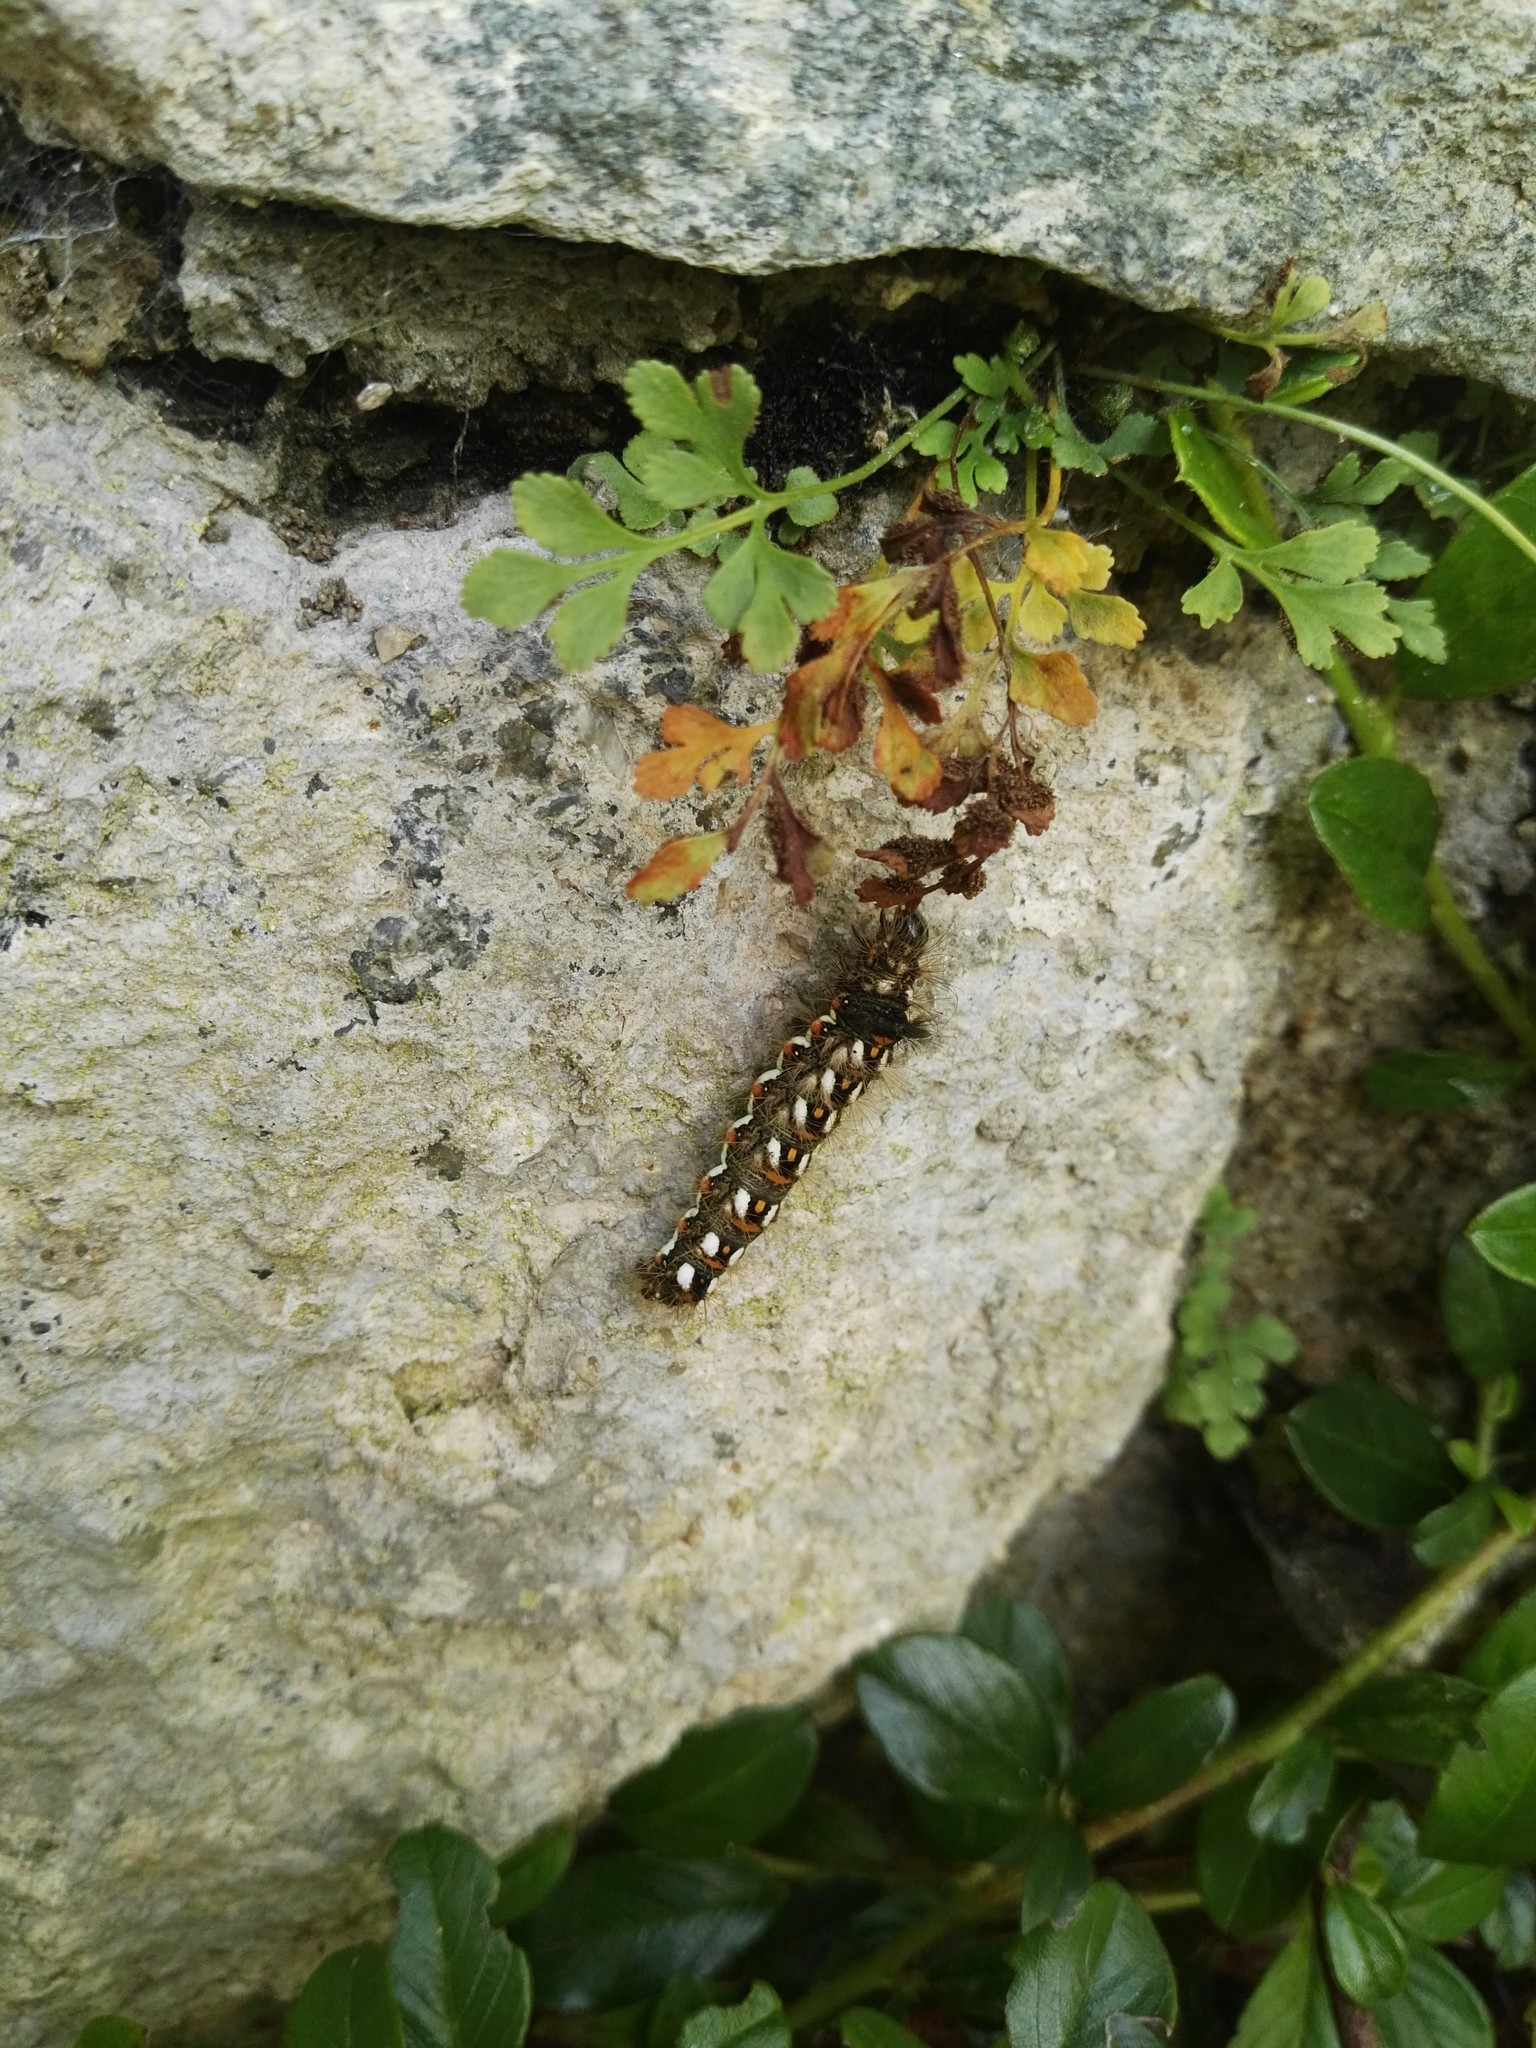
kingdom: Animalia
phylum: Arthropoda
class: Insecta
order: Lepidoptera
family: Noctuidae
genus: Acronicta
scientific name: Acronicta rumicis
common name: Knot grass
